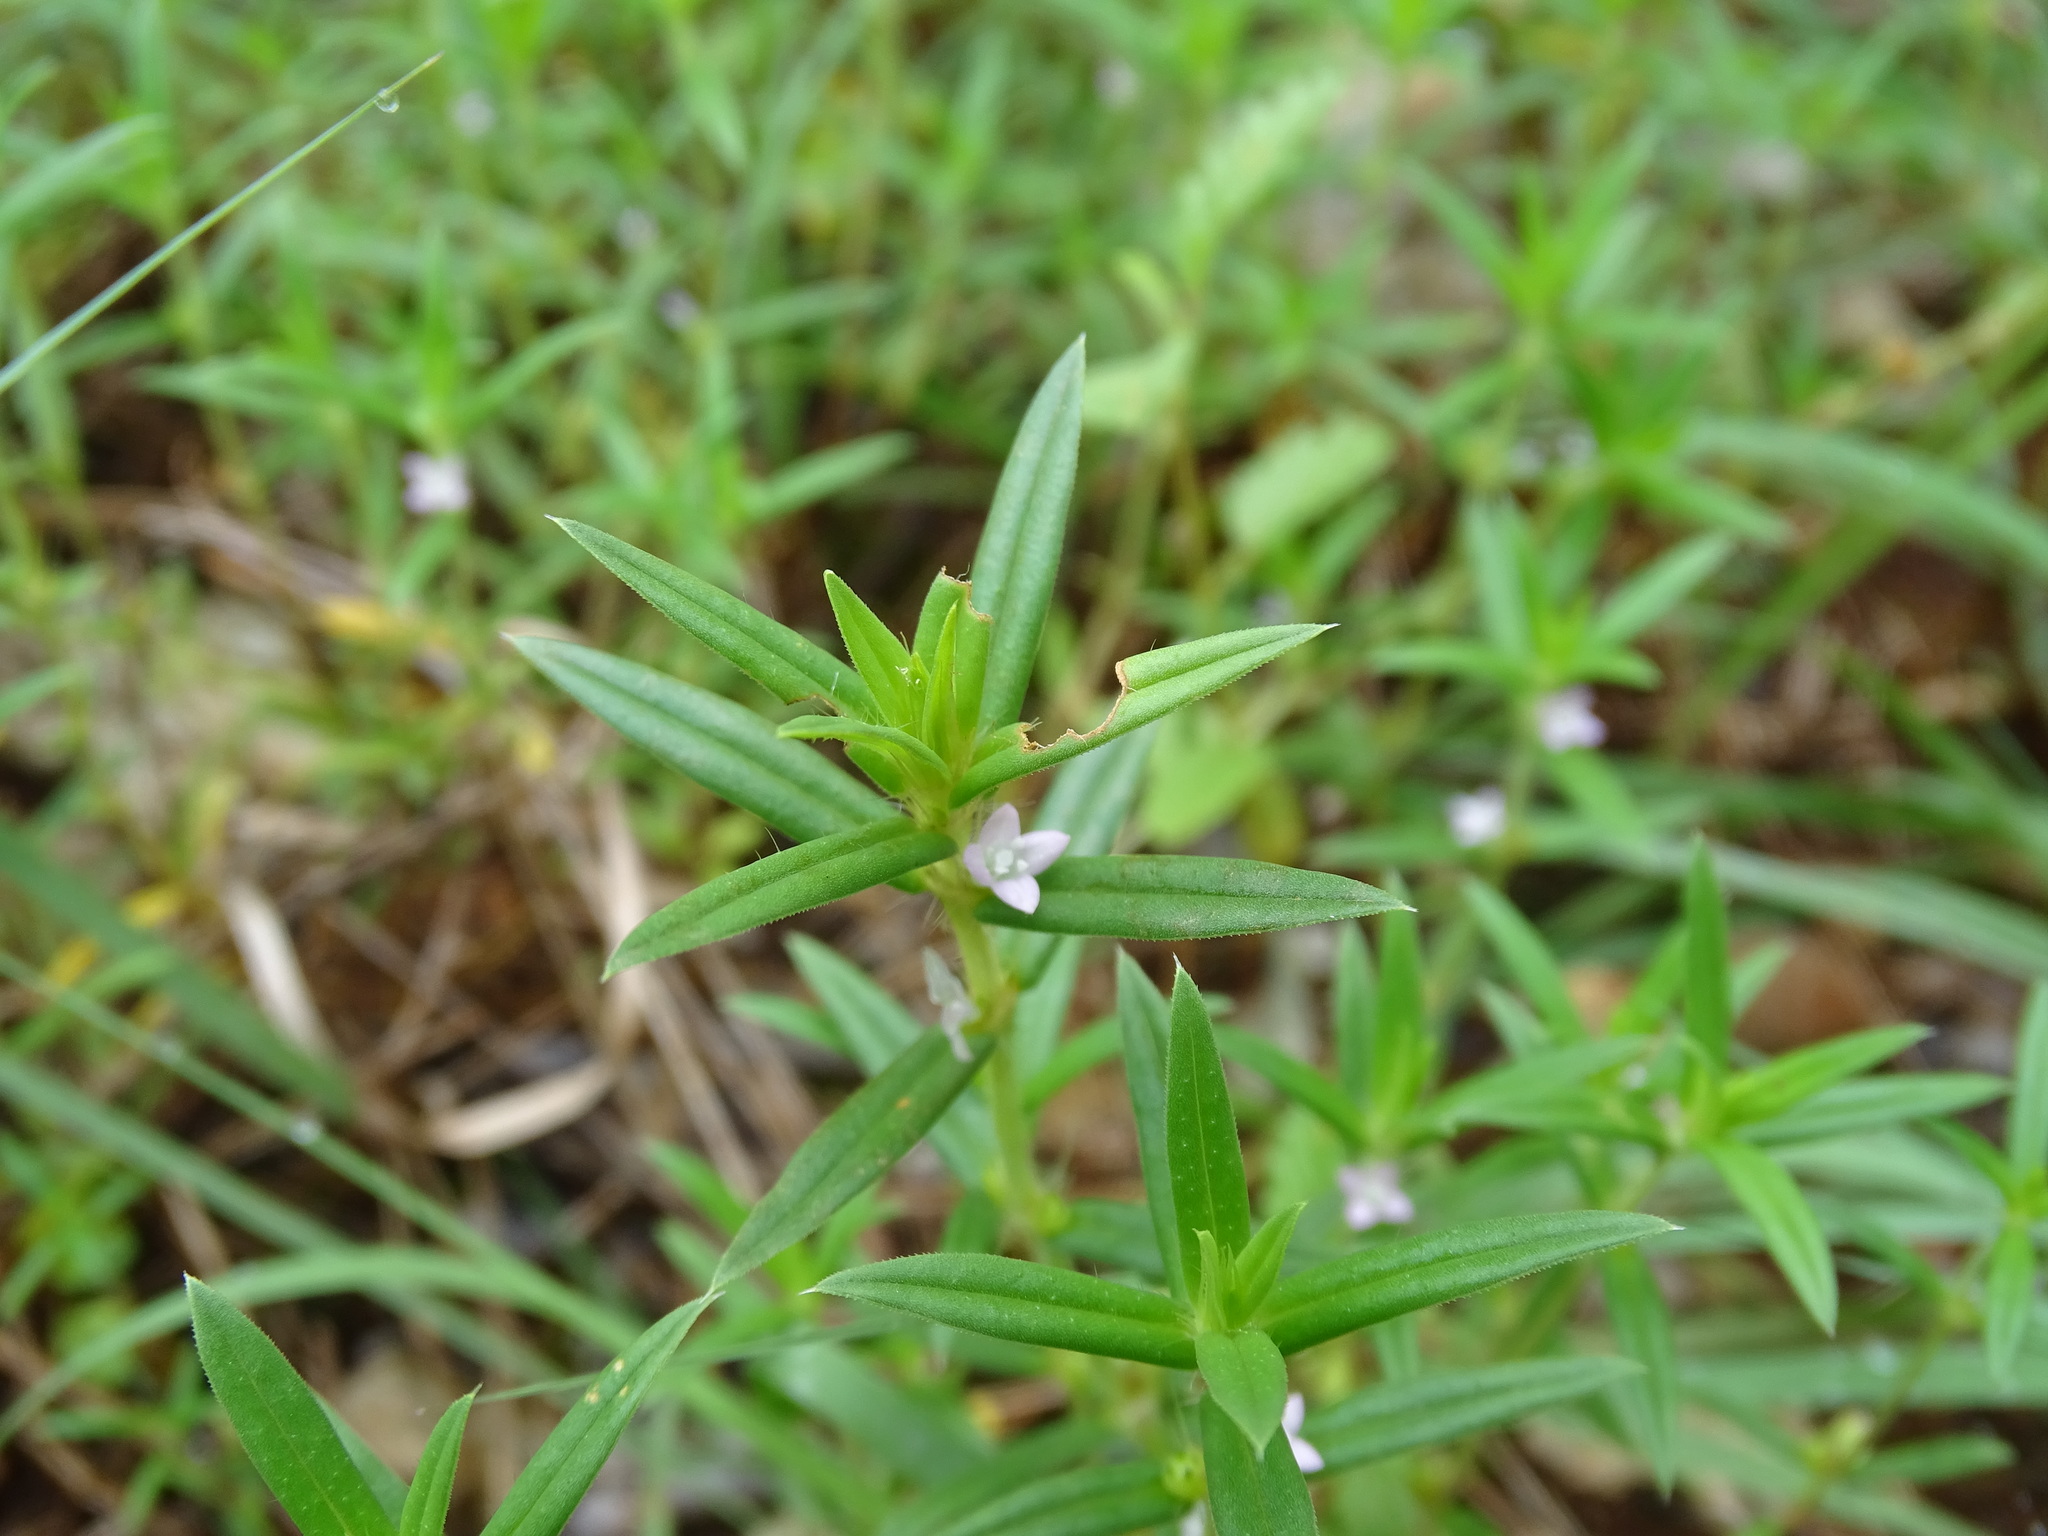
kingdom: Plantae
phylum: Tracheophyta
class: Magnoliopsida
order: Gentianales
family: Rubiaceae
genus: Hexasepalum
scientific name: Hexasepalum teres
